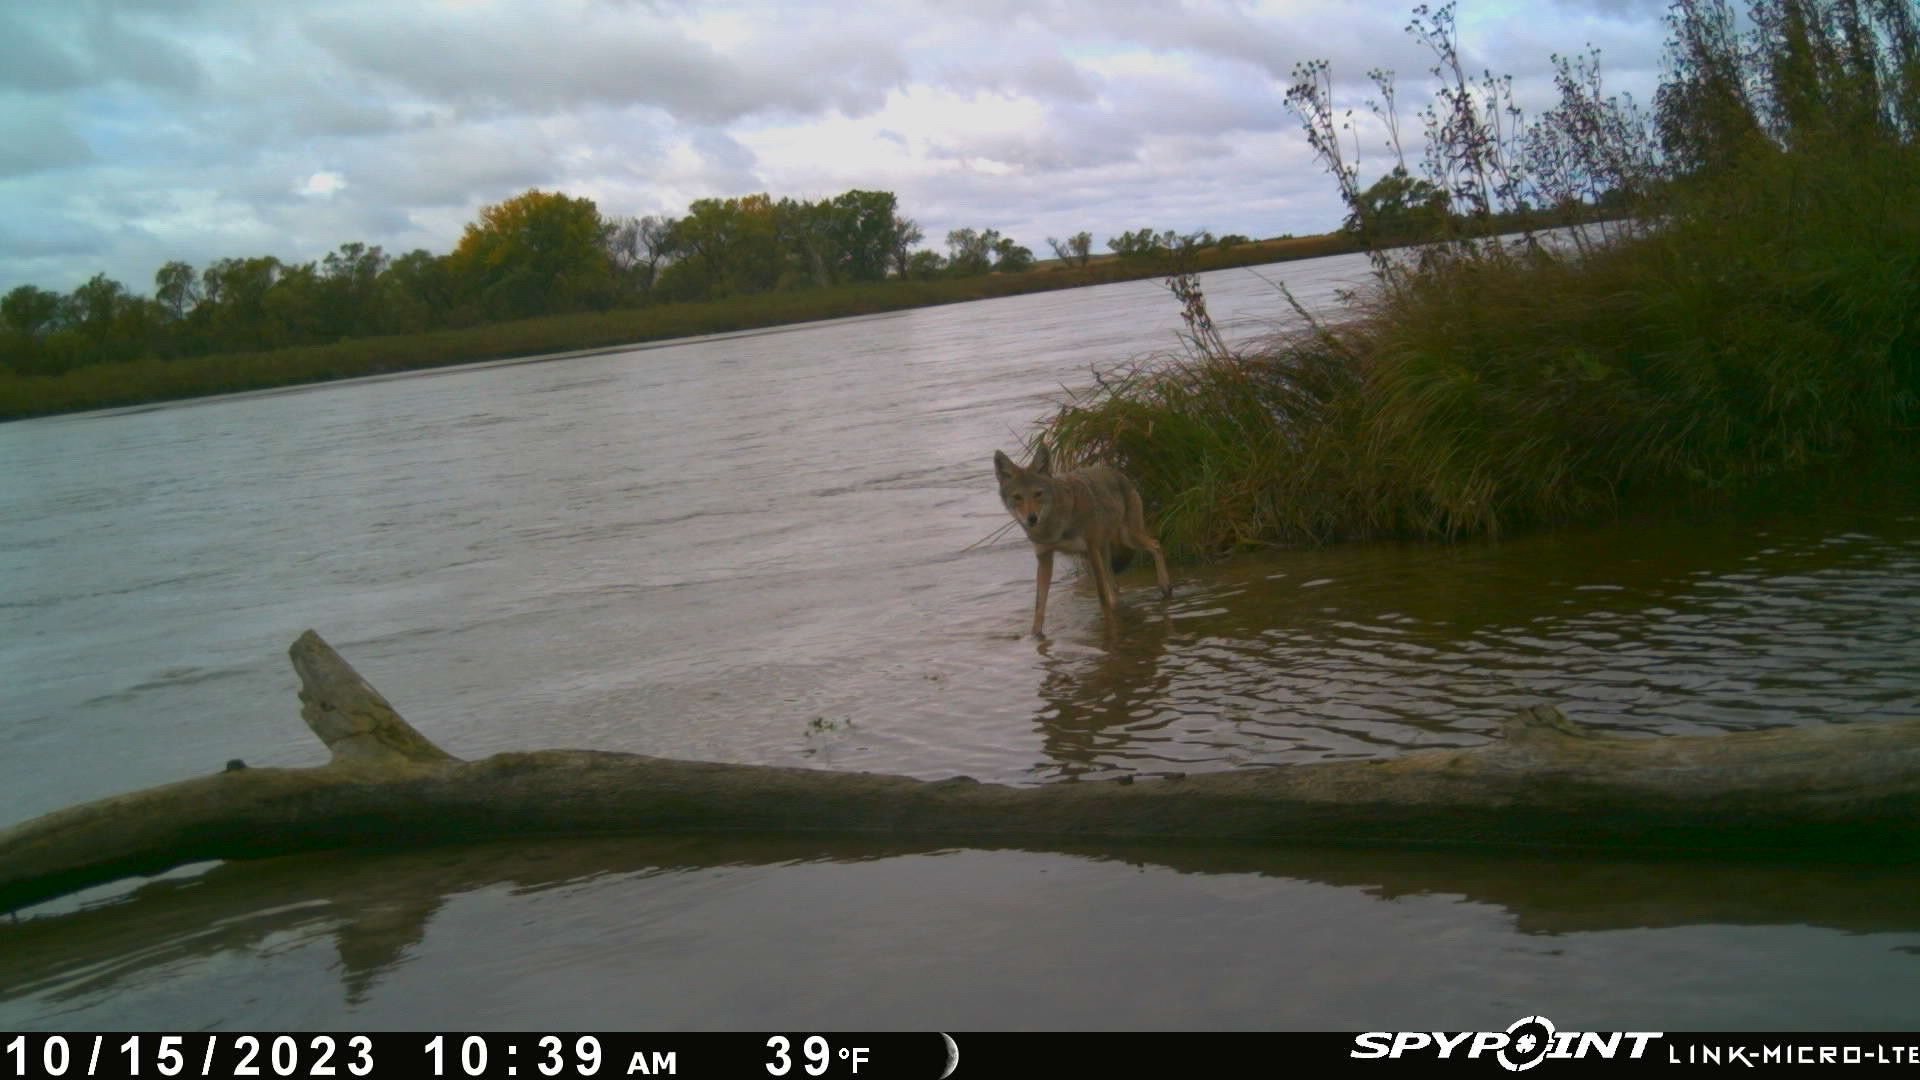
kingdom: Animalia
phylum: Chordata
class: Mammalia
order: Carnivora
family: Canidae
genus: Canis
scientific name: Canis latrans
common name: Coyote
